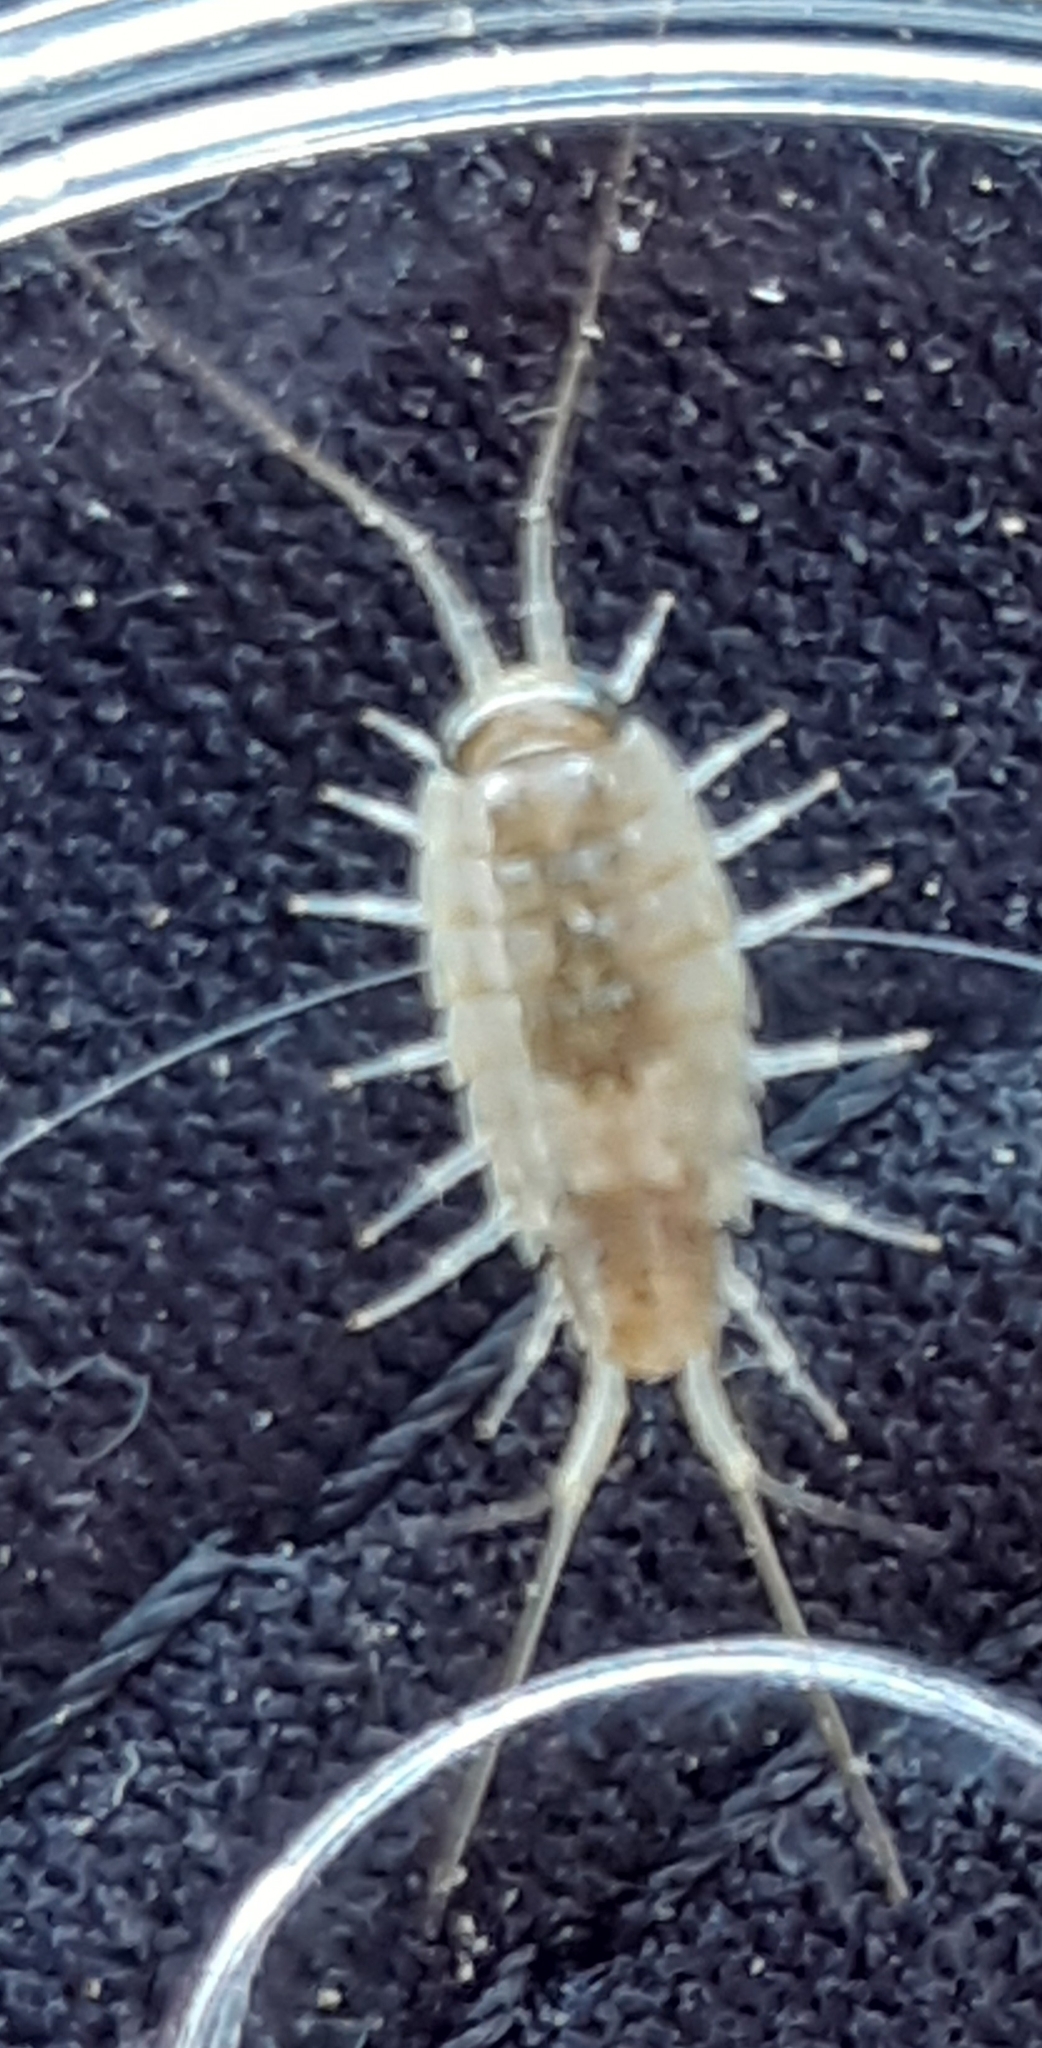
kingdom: Animalia
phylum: Arthropoda
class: Malacostraca
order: Isopoda
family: Ligiidae
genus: Ligia
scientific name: Ligia italica
